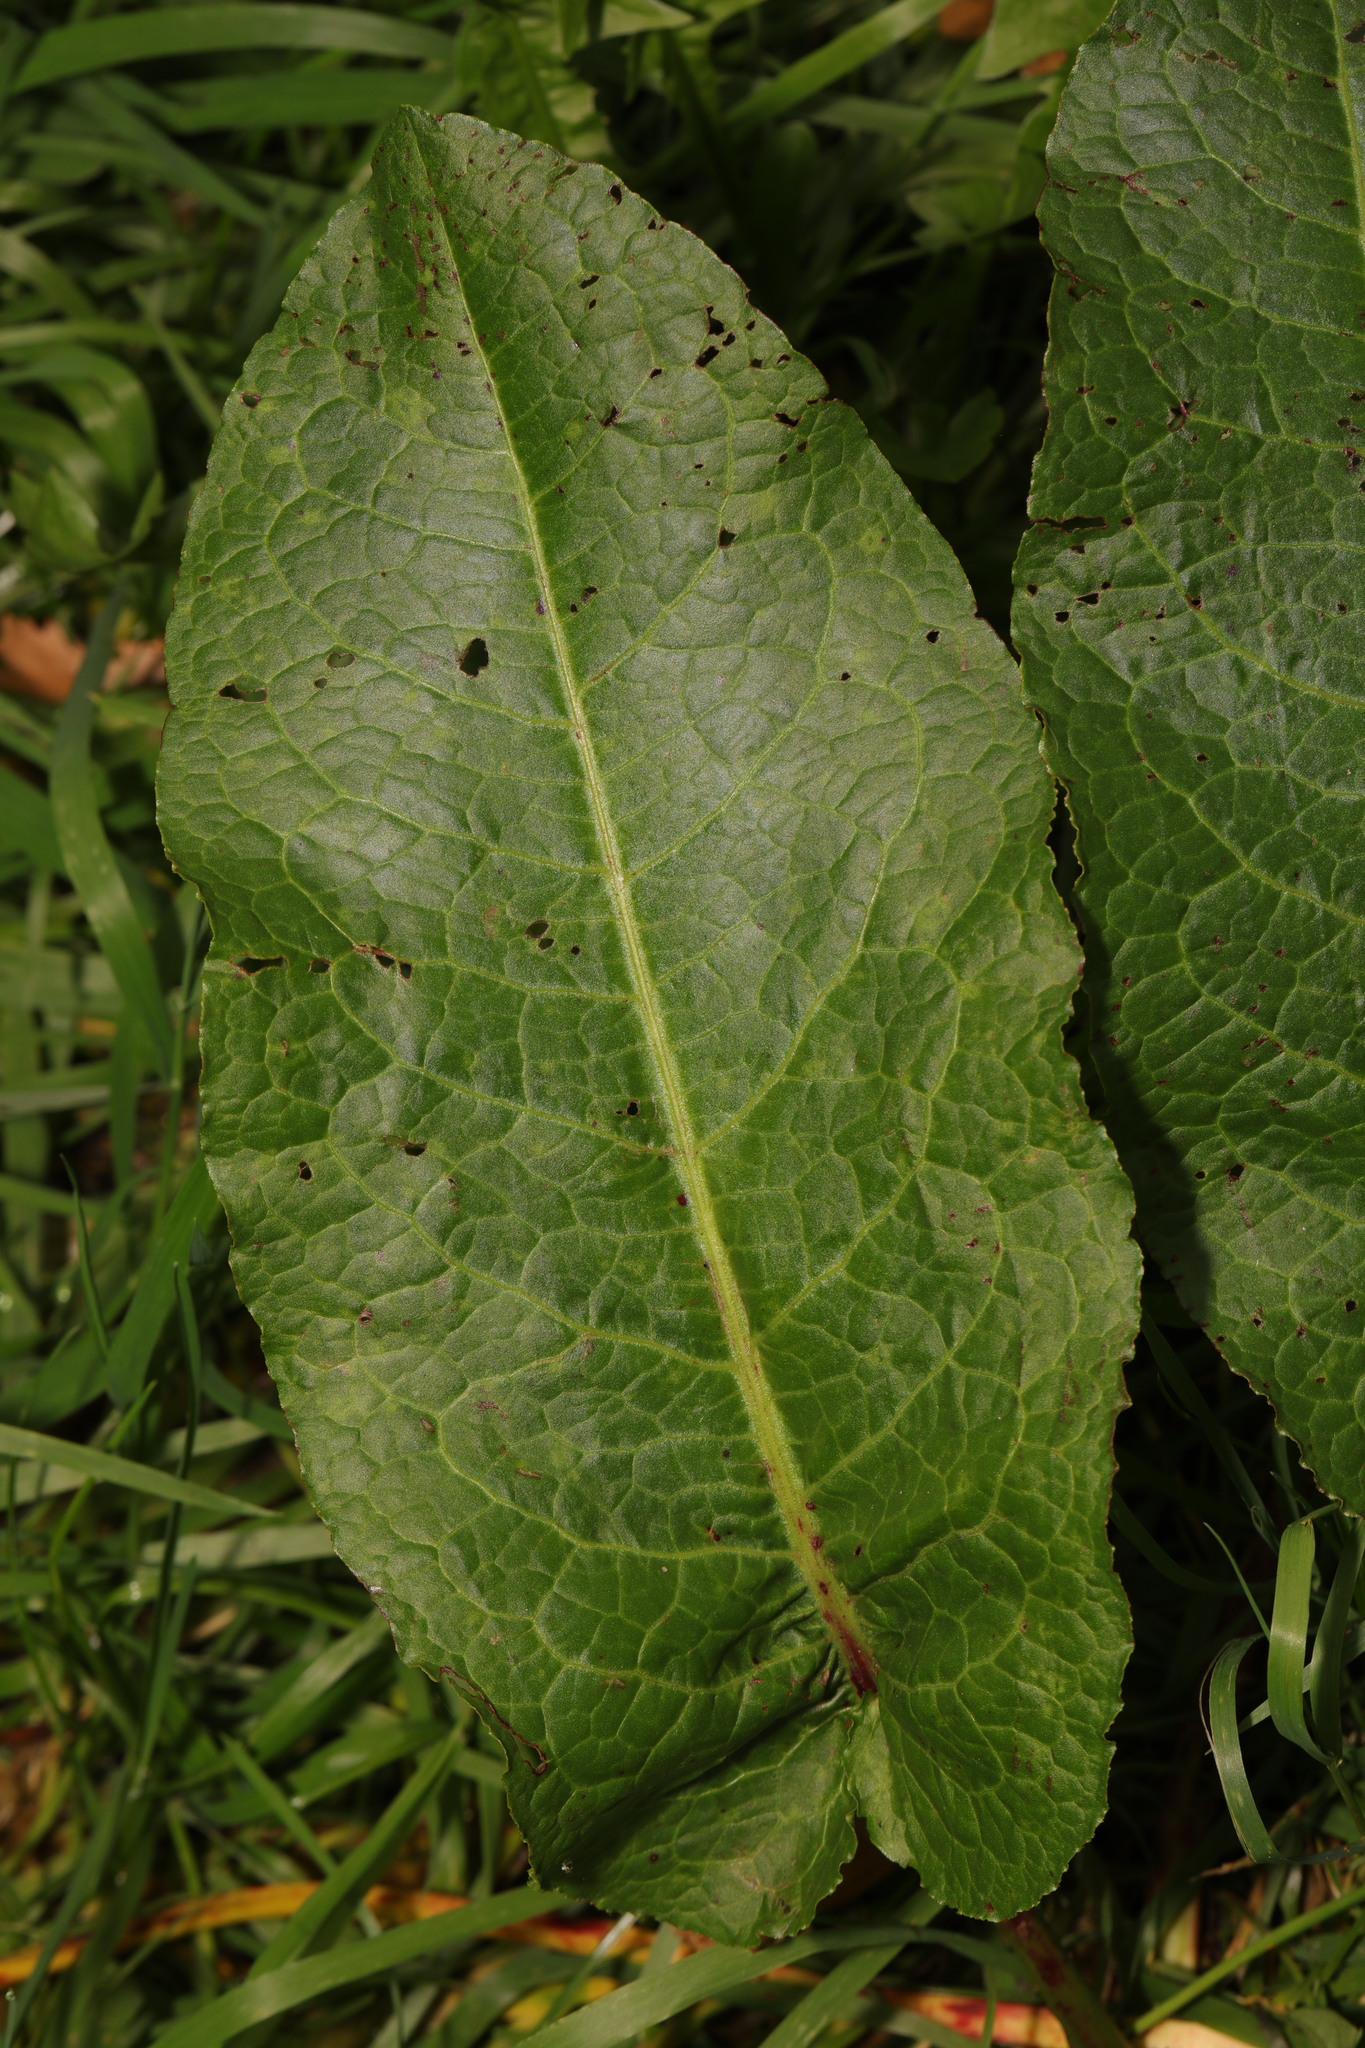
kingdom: Plantae
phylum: Tracheophyta
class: Magnoliopsida
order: Caryophyllales
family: Polygonaceae
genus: Rumex
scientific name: Rumex obtusifolius
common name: Bitter dock
